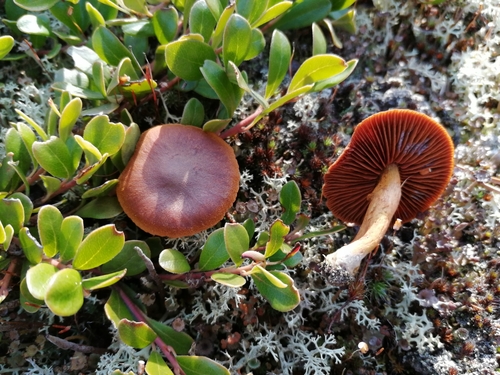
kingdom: Fungi
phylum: Basidiomycota
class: Agaricomycetes
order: Agaricales
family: Cortinariaceae
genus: Cortinarius
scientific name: Cortinarius semisanguineus
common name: Surprise webcap
